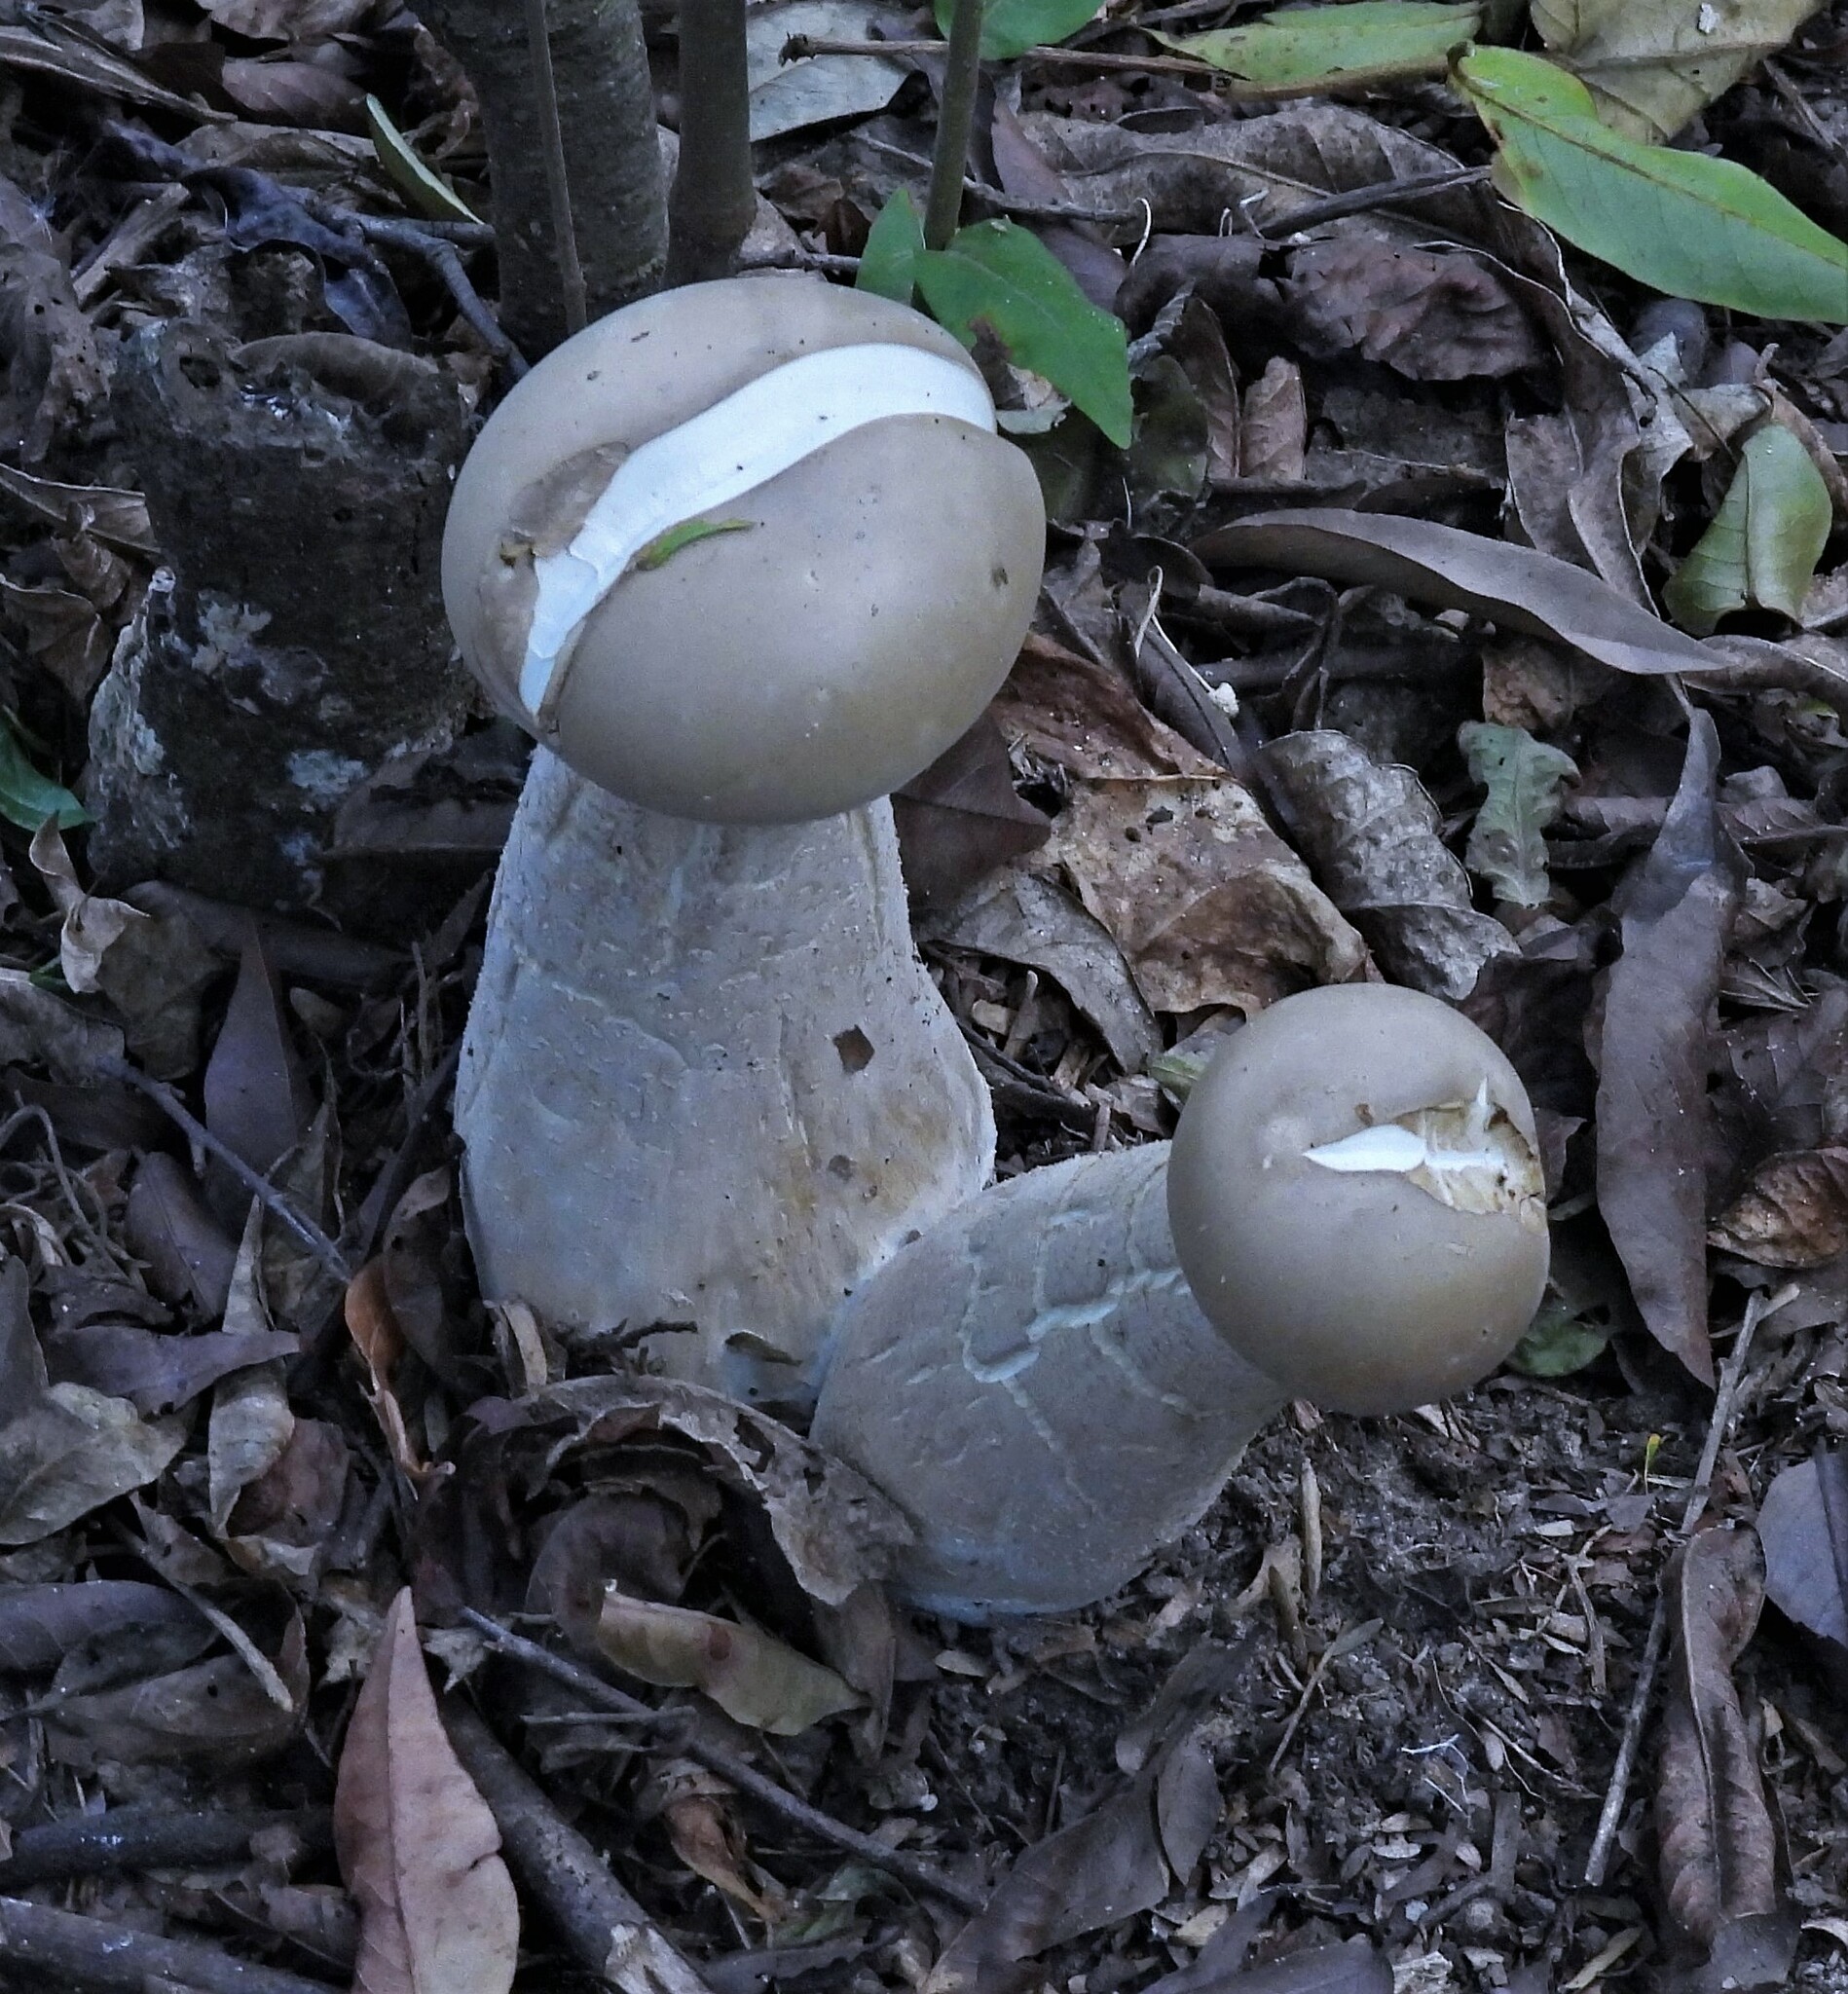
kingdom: Fungi
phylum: Basidiomycota
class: Agaricomycetes
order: Agaricales
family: Callistosporiaceae
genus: Macrocybe
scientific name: Macrocybe titans
